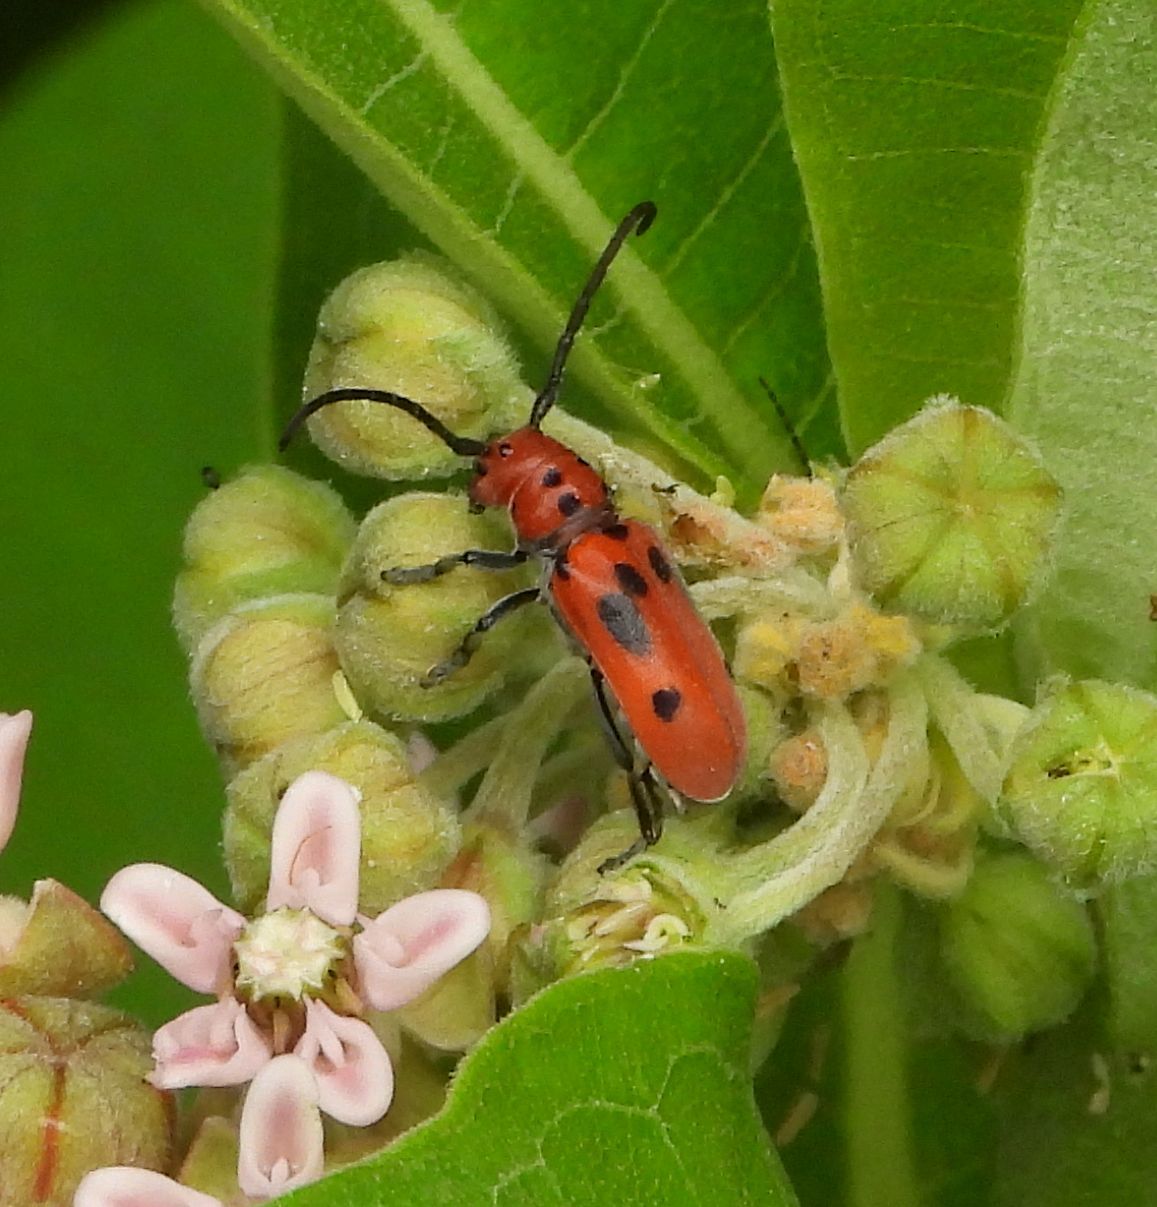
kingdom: Animalia
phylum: Arthropoda
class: Insecta
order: Coleoptera
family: Cerambycidae
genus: Tetraopes
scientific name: Tetraopes tetrophthalmus
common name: Red milkweed beetle
